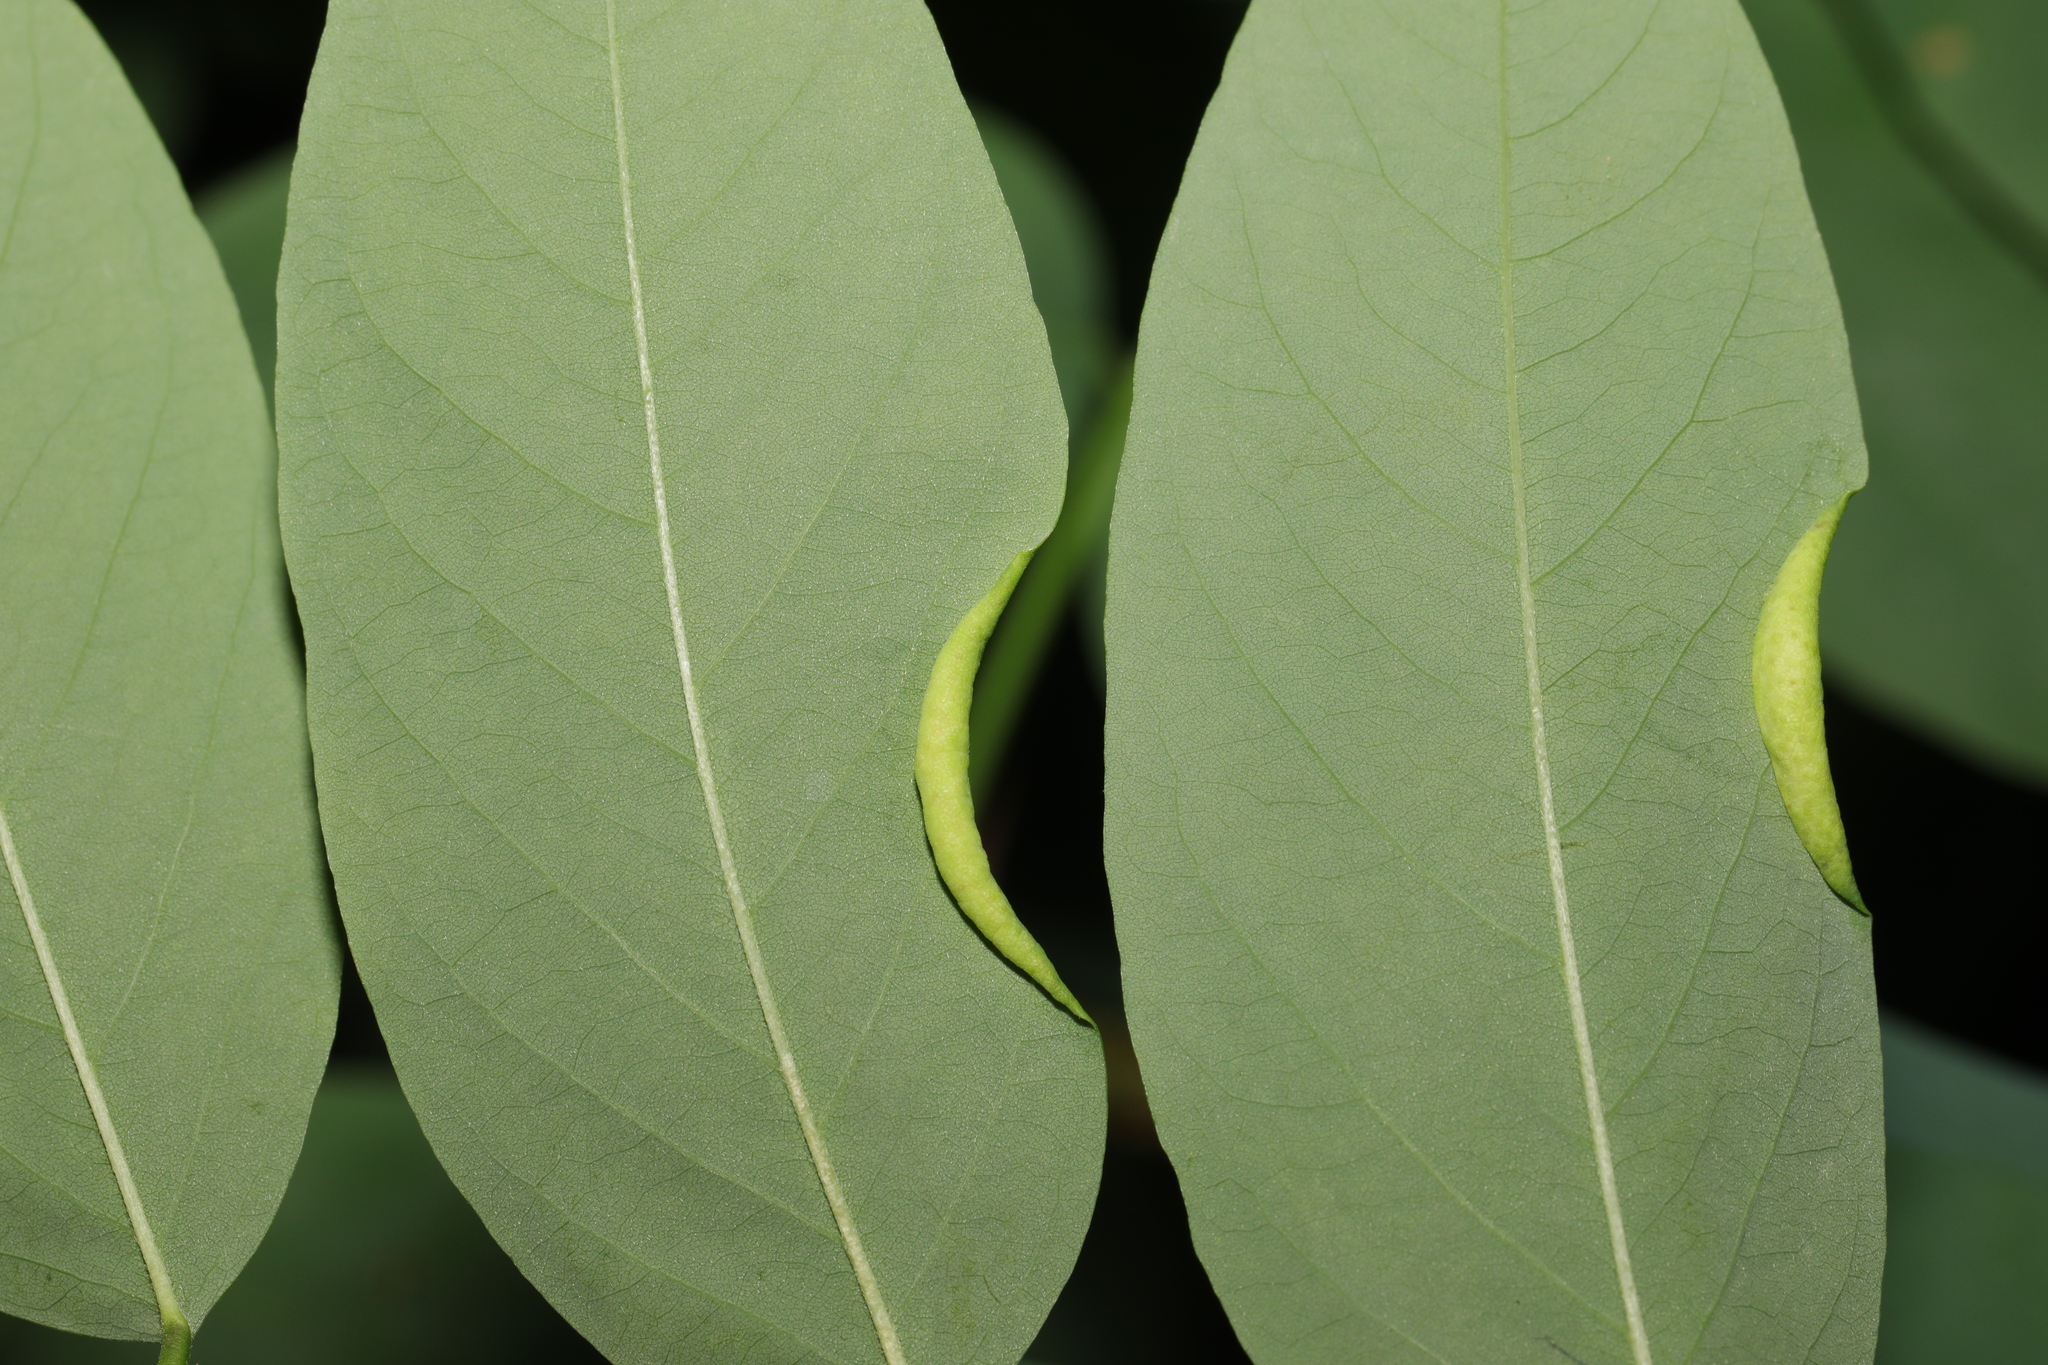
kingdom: Animalia
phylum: Arthropoda
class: Insecta
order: Diptera
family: Cecidomyiidae
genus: Obolodiplosis
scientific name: Obolodiplosis robiniae
